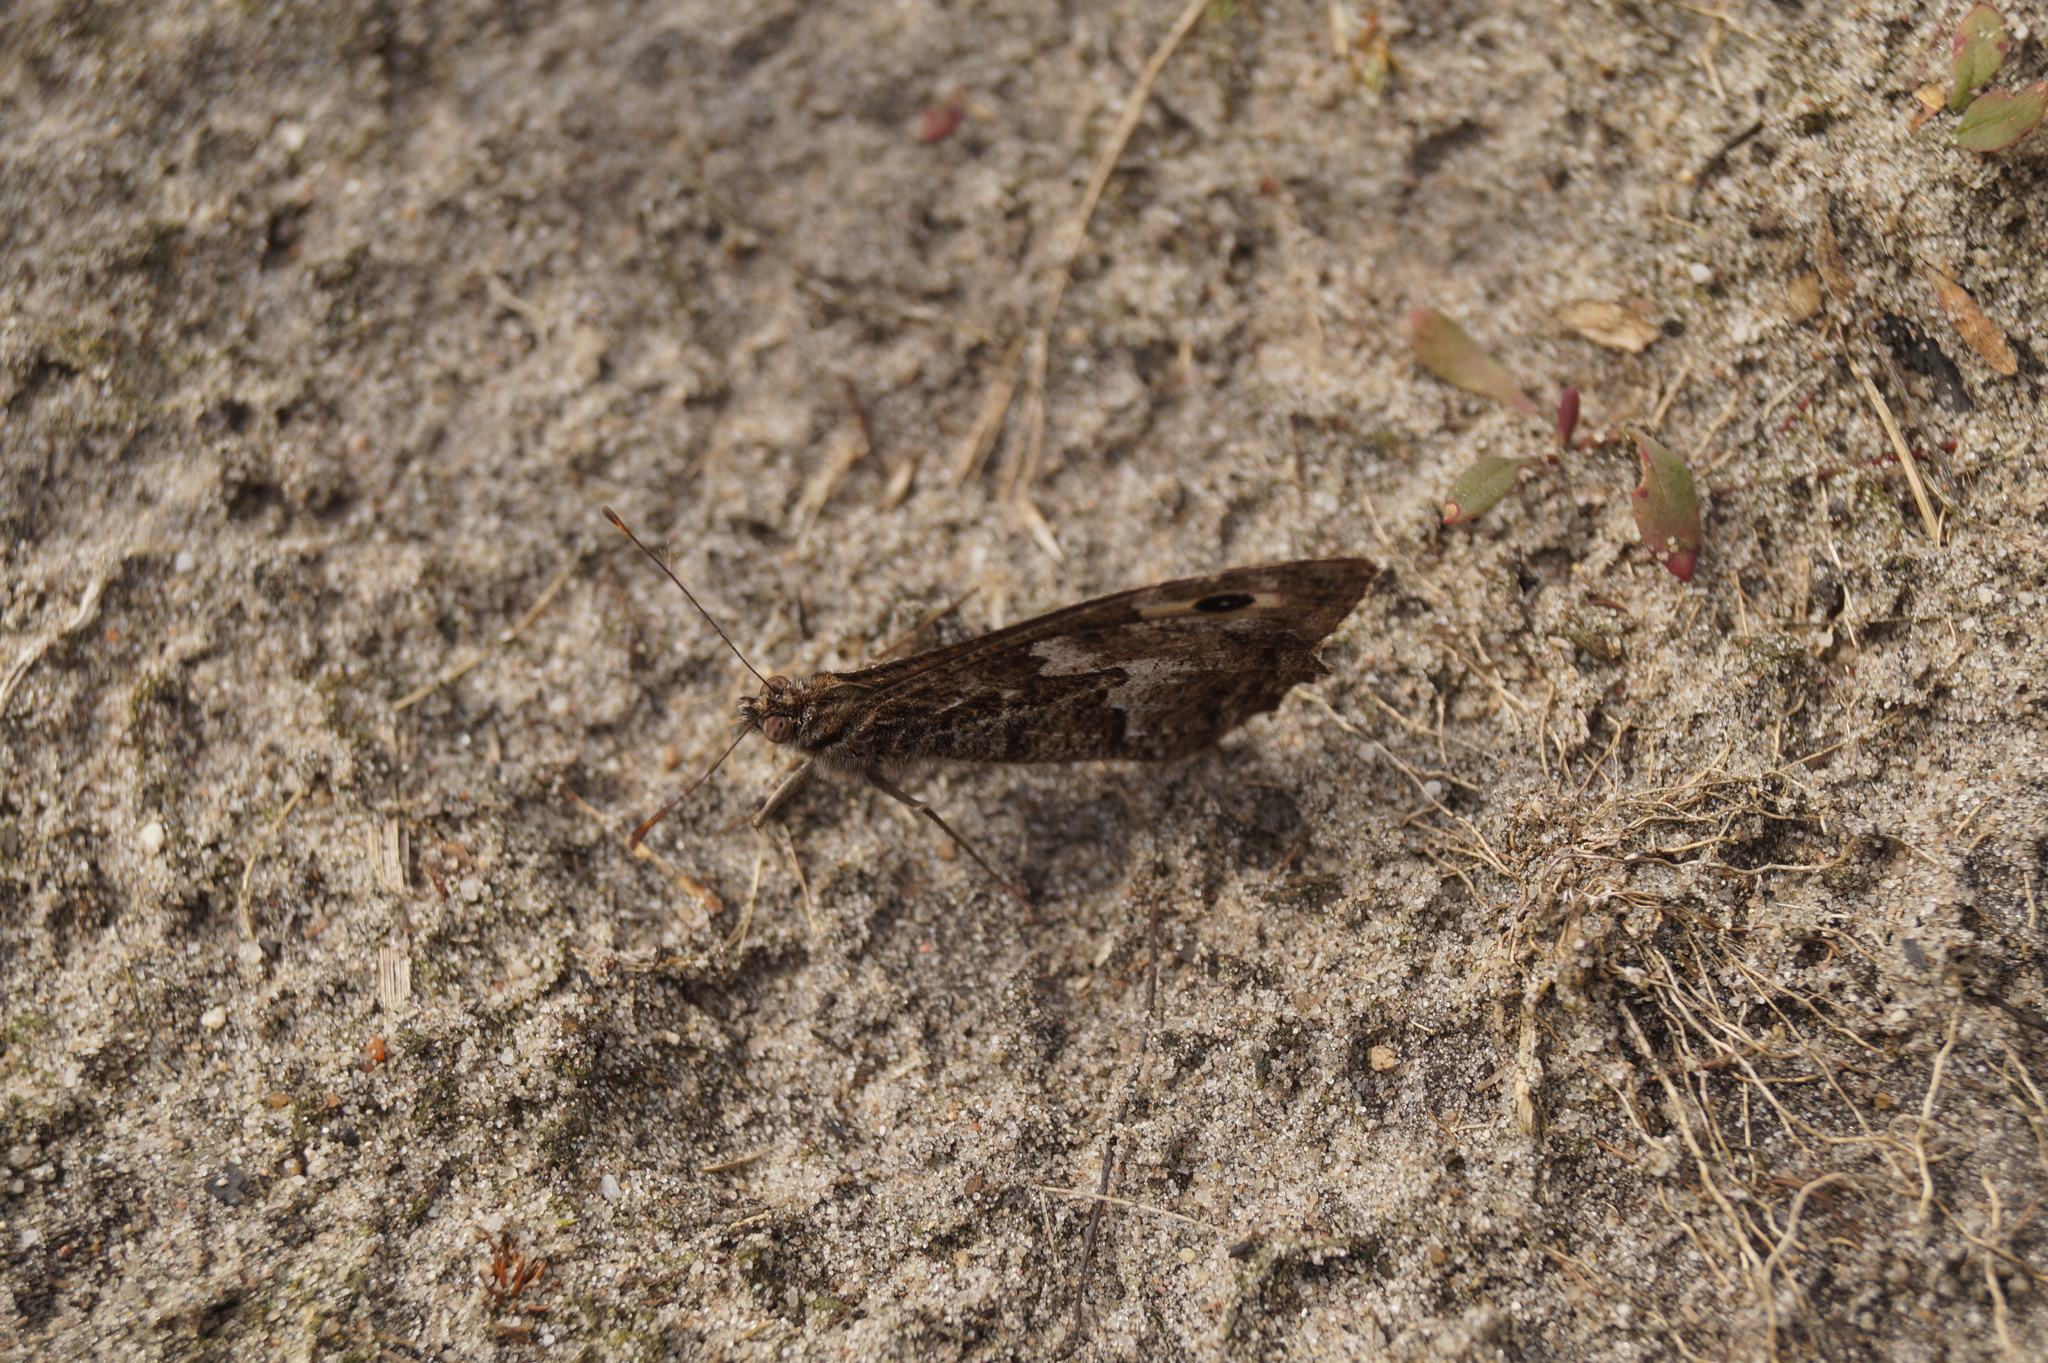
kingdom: Animalia
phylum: Arthropoda
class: Insecta
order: Lepidoptera
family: Nymphalidae
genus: Hipparchia
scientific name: Hipparchia semele
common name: Grayling
